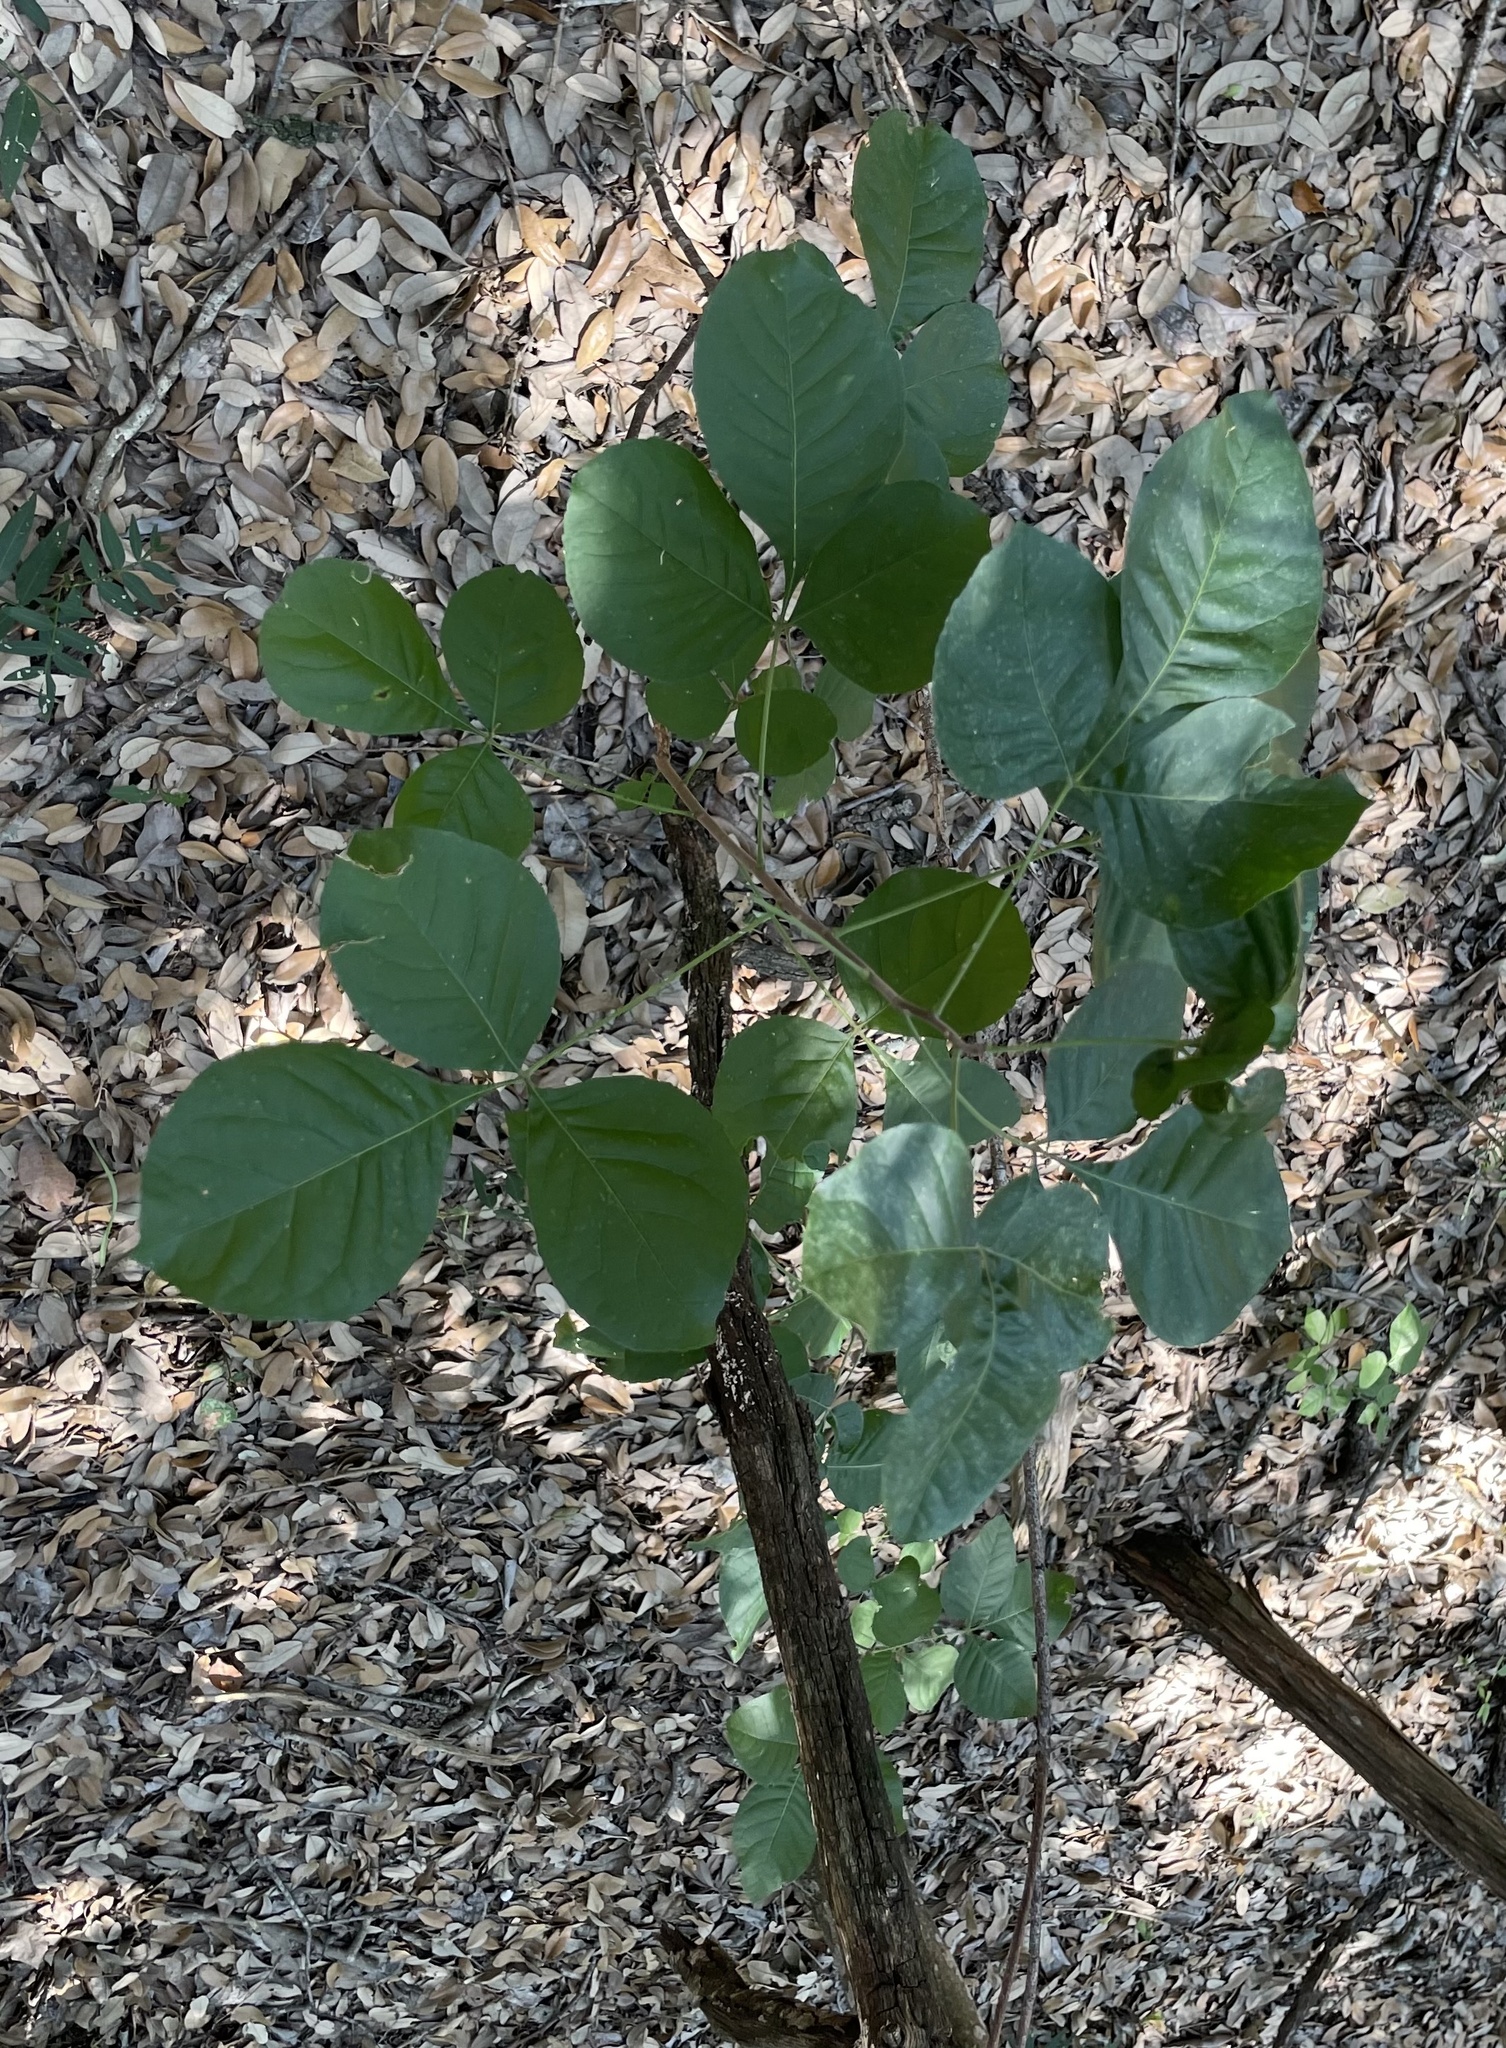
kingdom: Plantae
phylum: Tracheophyta
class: Magnoliopsida
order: Sapindales
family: Rutaceae
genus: Ptelea
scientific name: Ptelea trifoliata
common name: Common hop-tree
